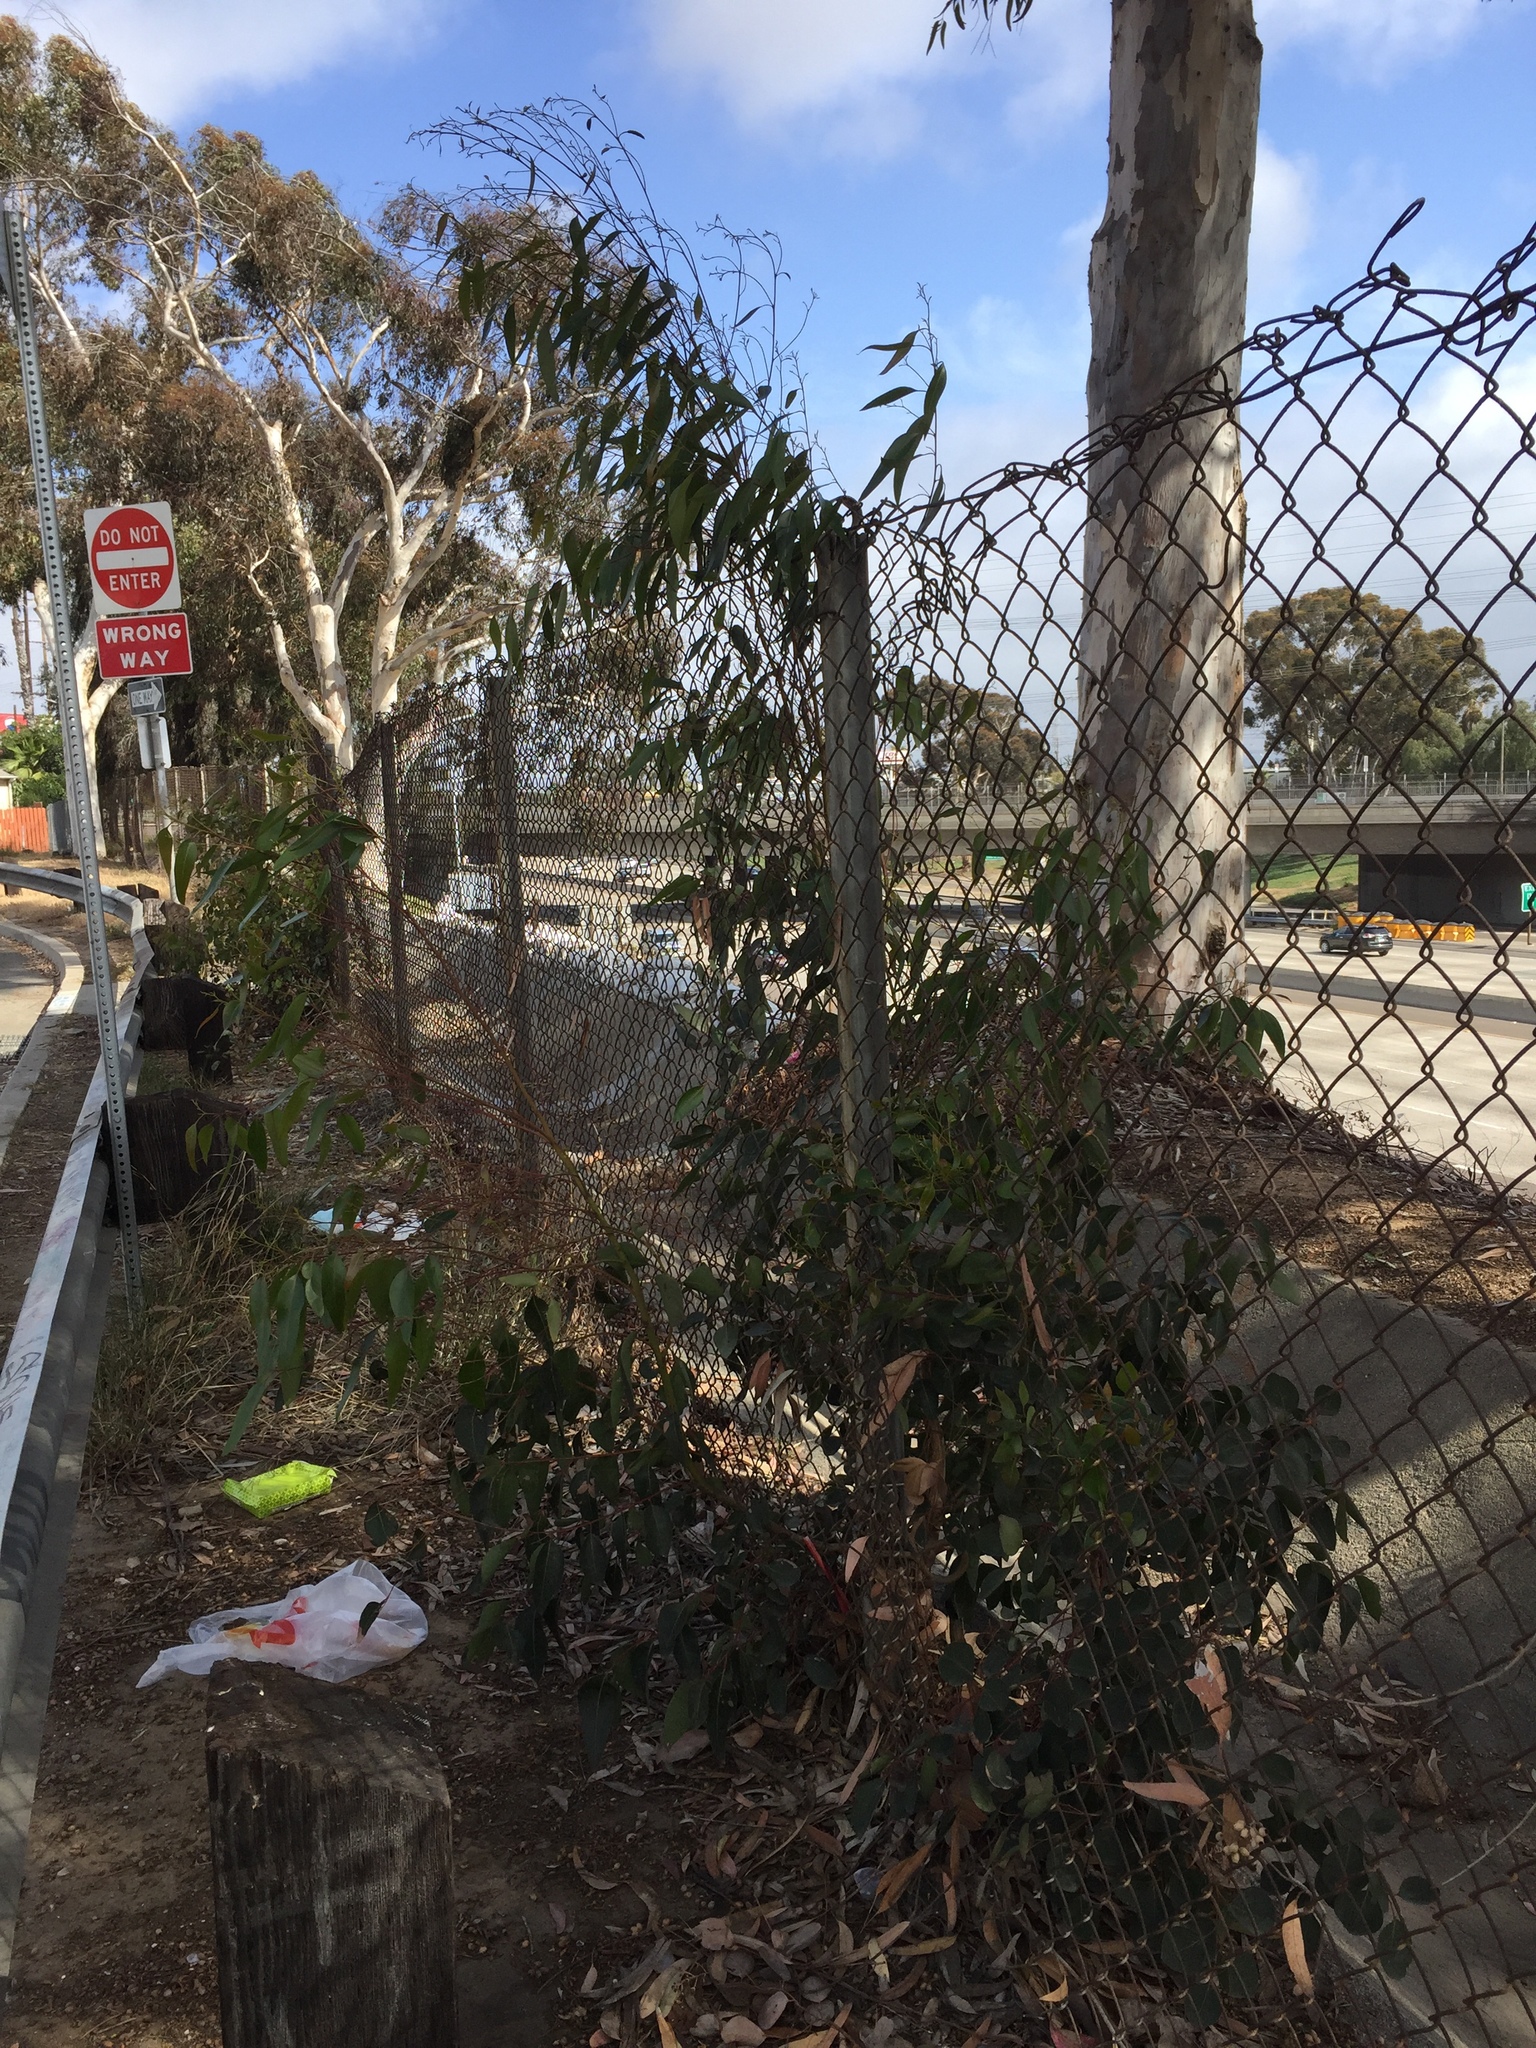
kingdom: Plantae
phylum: Tracheophyta
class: Magnoliopsida
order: Myrtales
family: Myrtaceae
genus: Eucalyptus
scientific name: Eucalyptus polyanthemos
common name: Red-box
